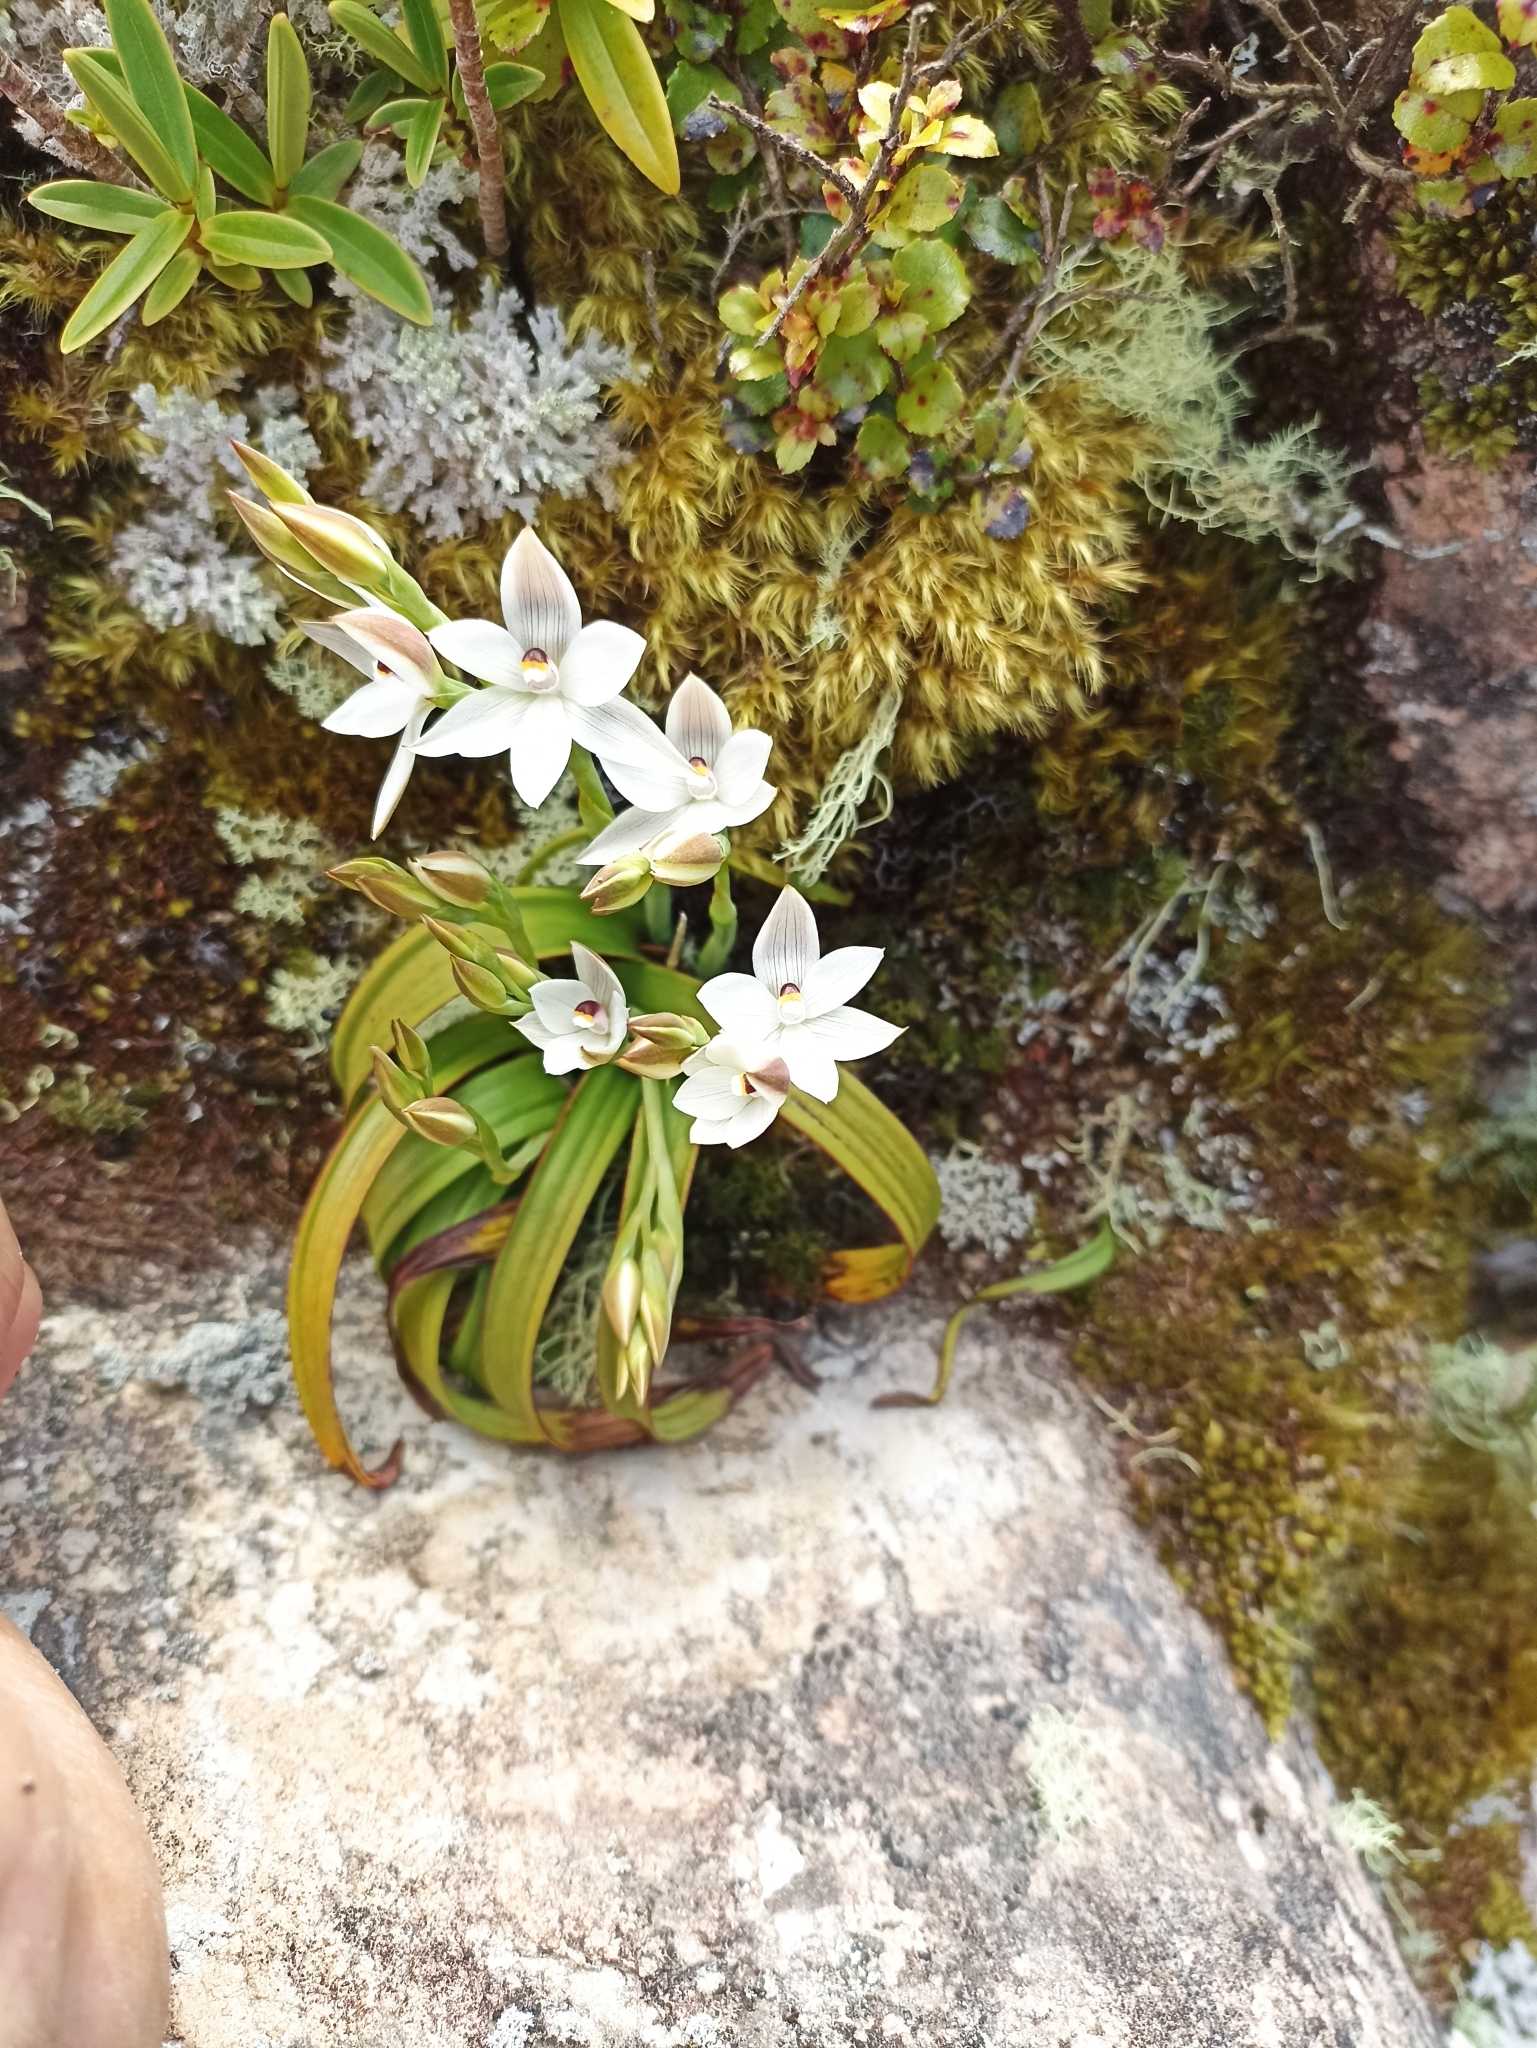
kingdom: Plantae
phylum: Tracheophyta
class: Liliopsida
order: Asparagales
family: Orchidaceae
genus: Thelymitra
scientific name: Thelymitra longifolia
